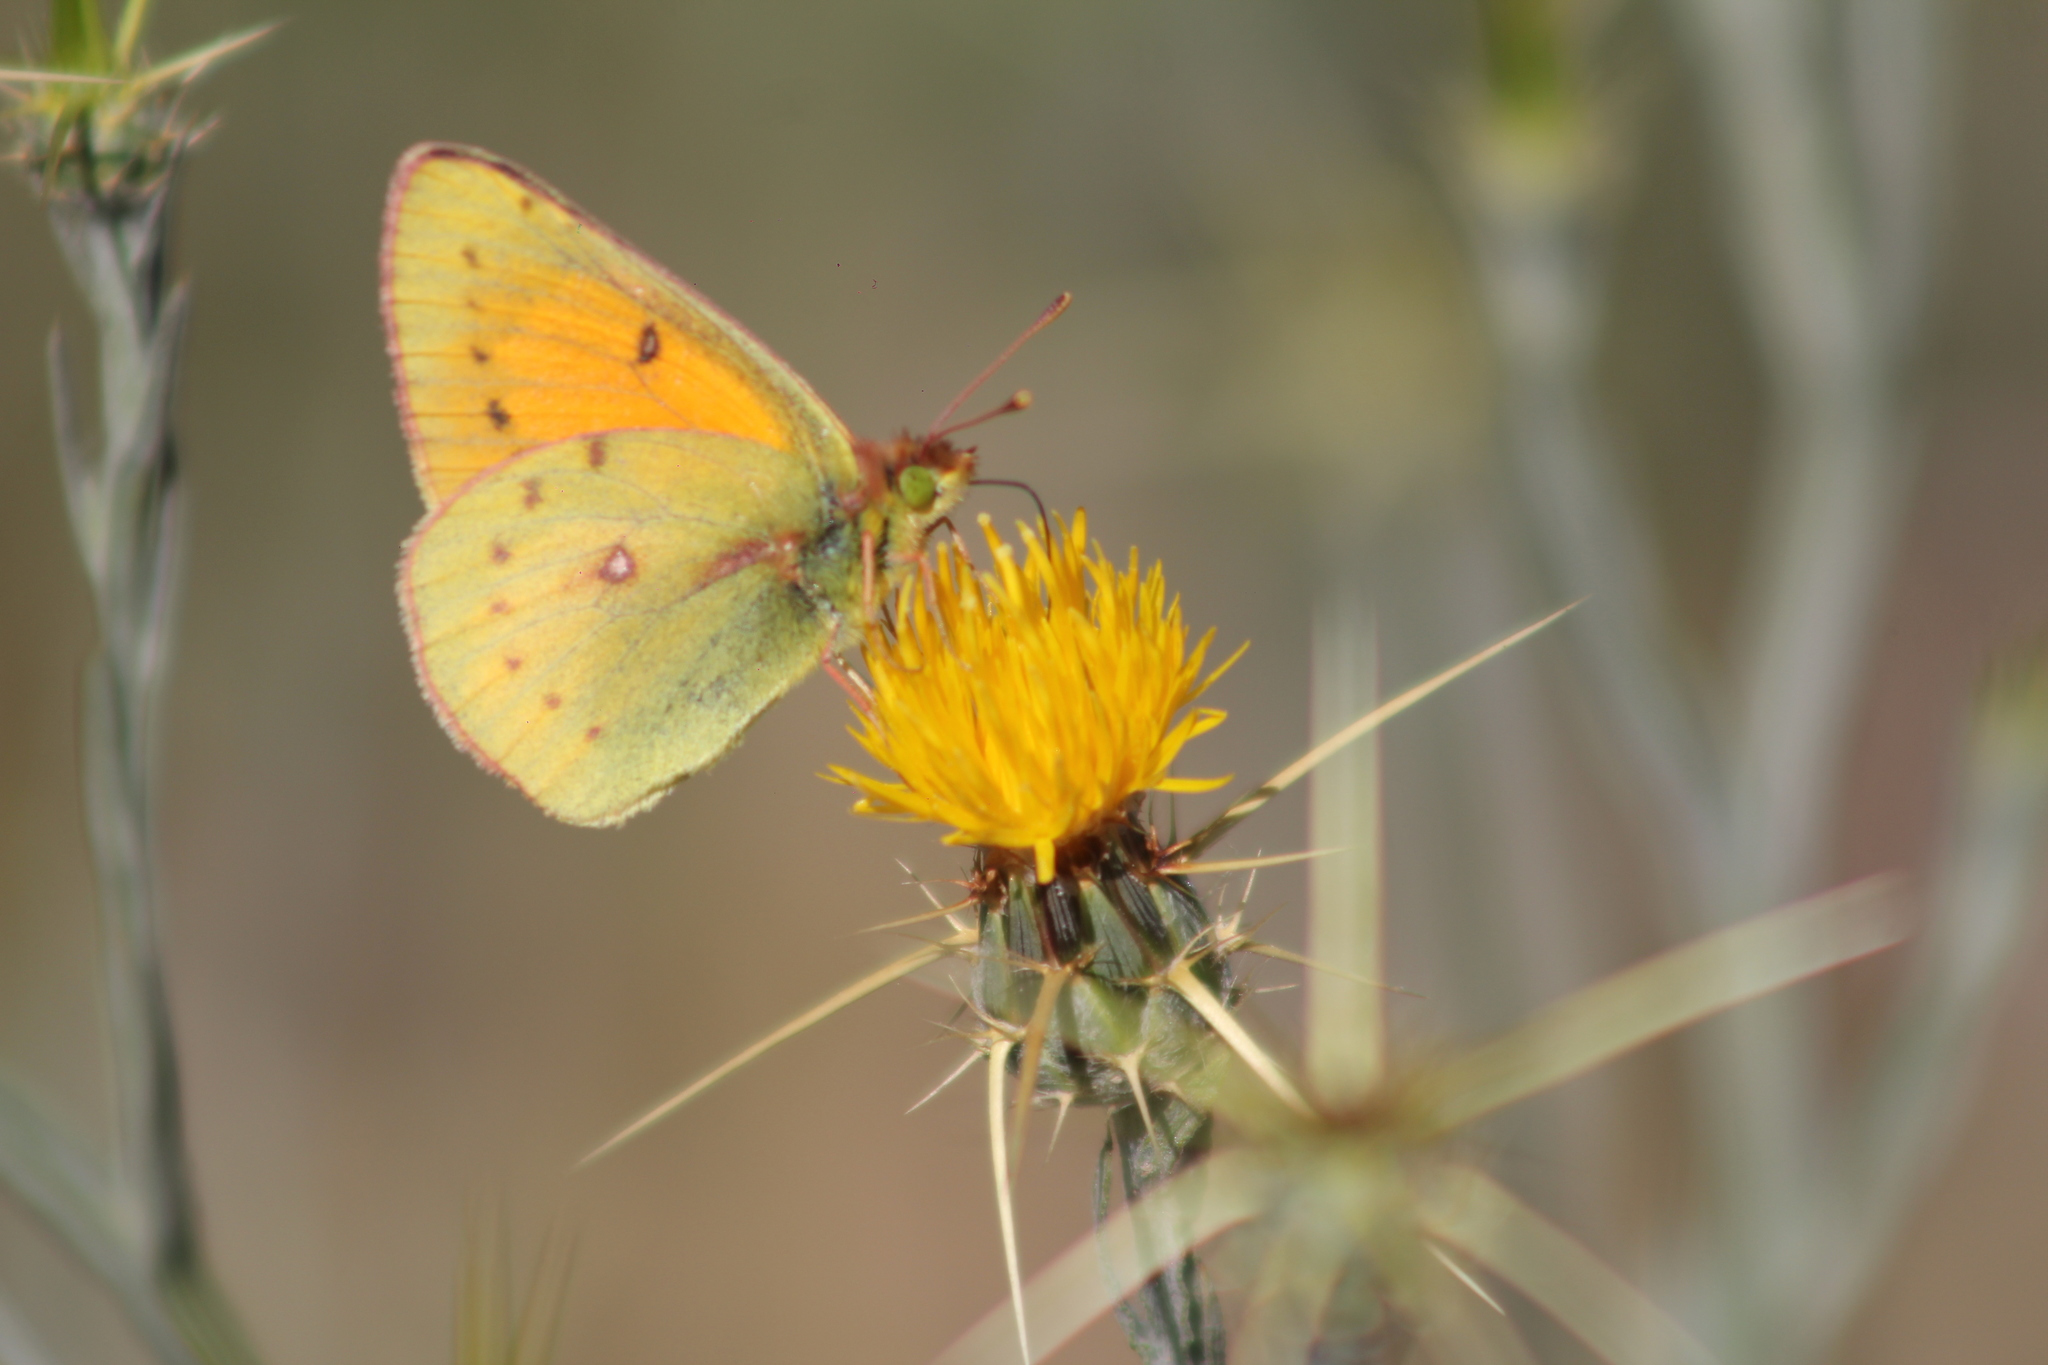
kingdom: Animalia
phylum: Arthropoda
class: Insecta
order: Lepidoptera
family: Pieridae
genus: Colias
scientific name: Colias vauthierii
